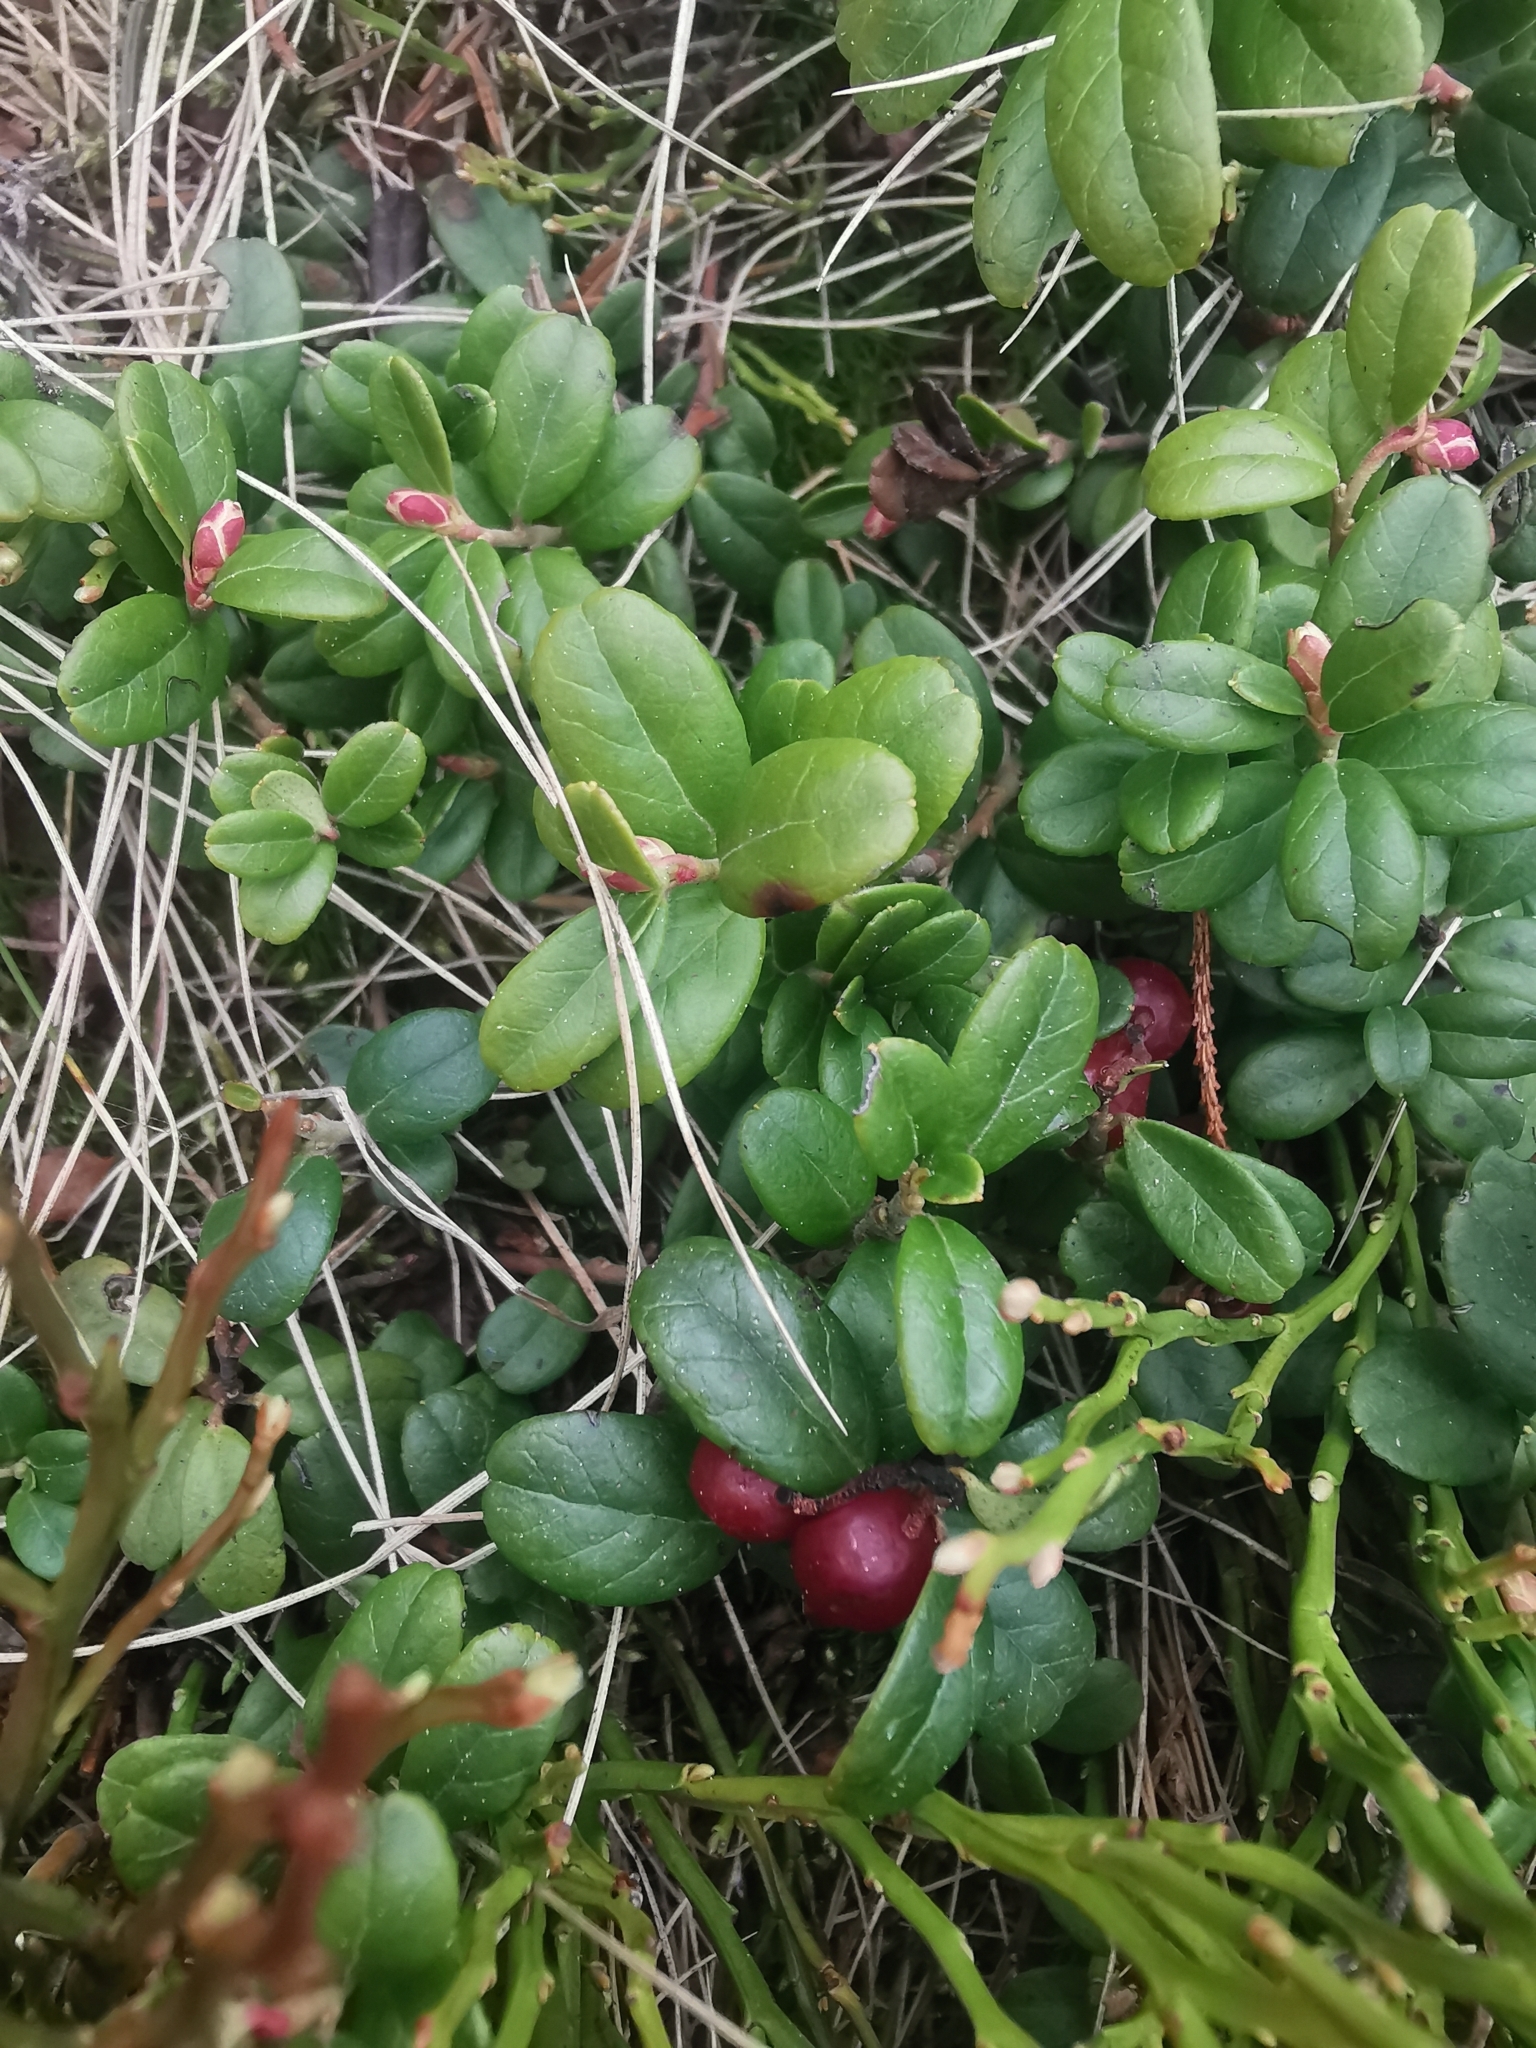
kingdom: Plantae
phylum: Tracheophyta
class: Magnoliopsida
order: Ericales
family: Ericaceae
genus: Vaccinium
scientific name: Vaccinium vitis-idaea
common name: Cowberry
